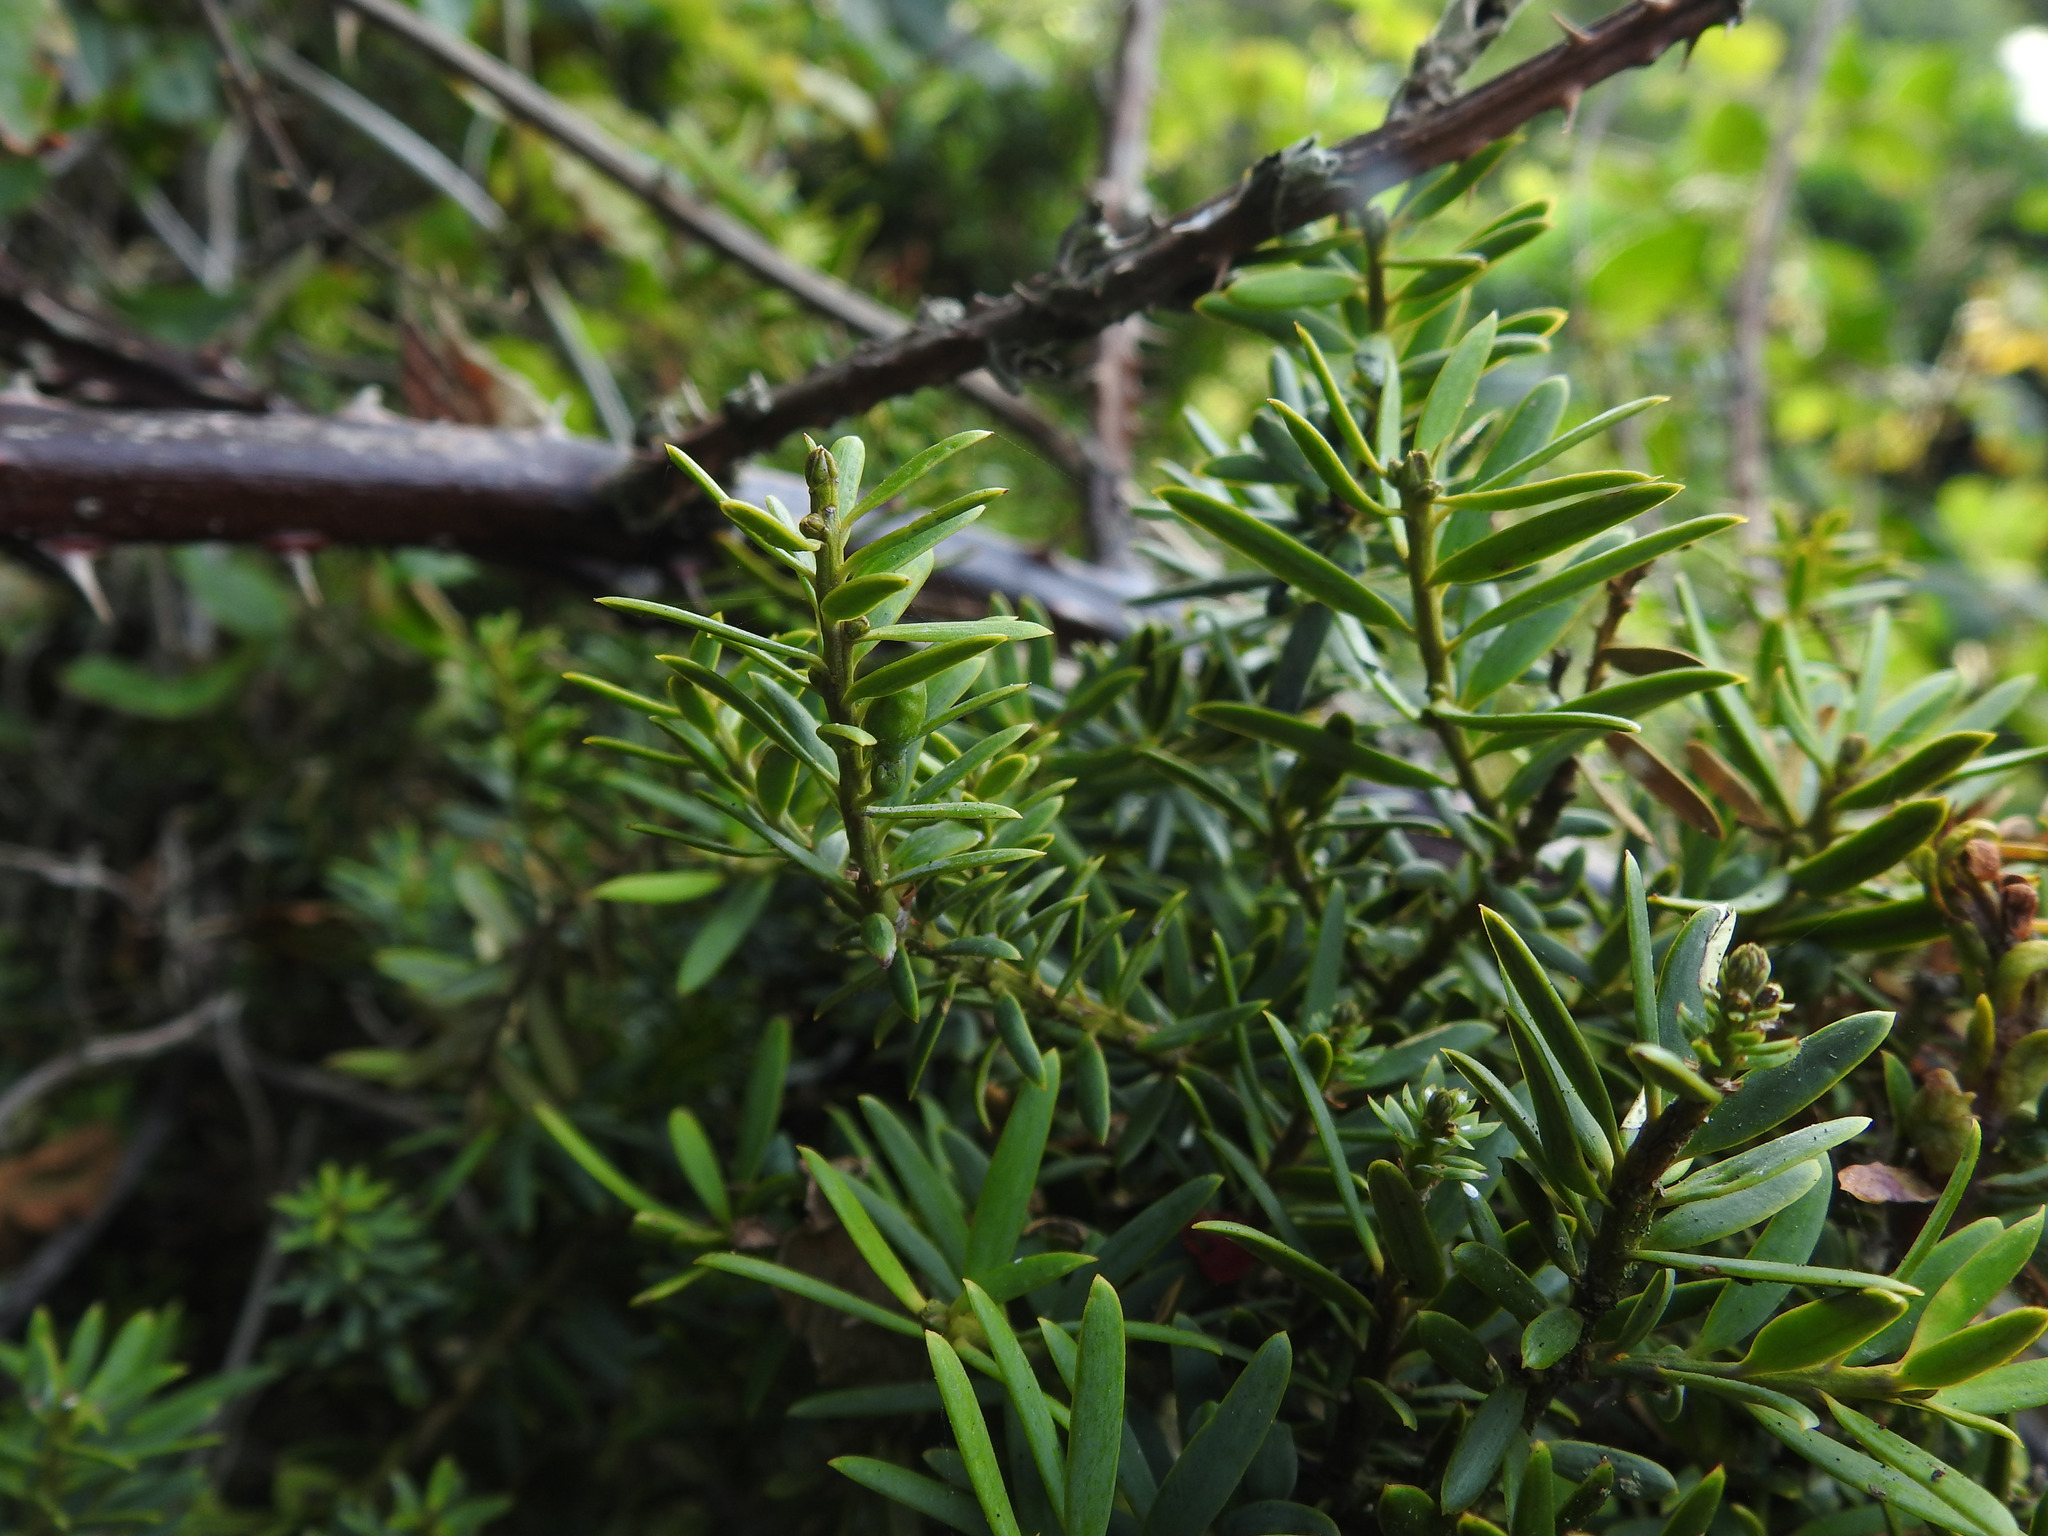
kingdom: Plantae
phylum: Tracheophyta
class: Pinopsida
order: Pinales
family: Podocarpaceae
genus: Podocarpus
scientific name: Podocarpus totara
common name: Totara
